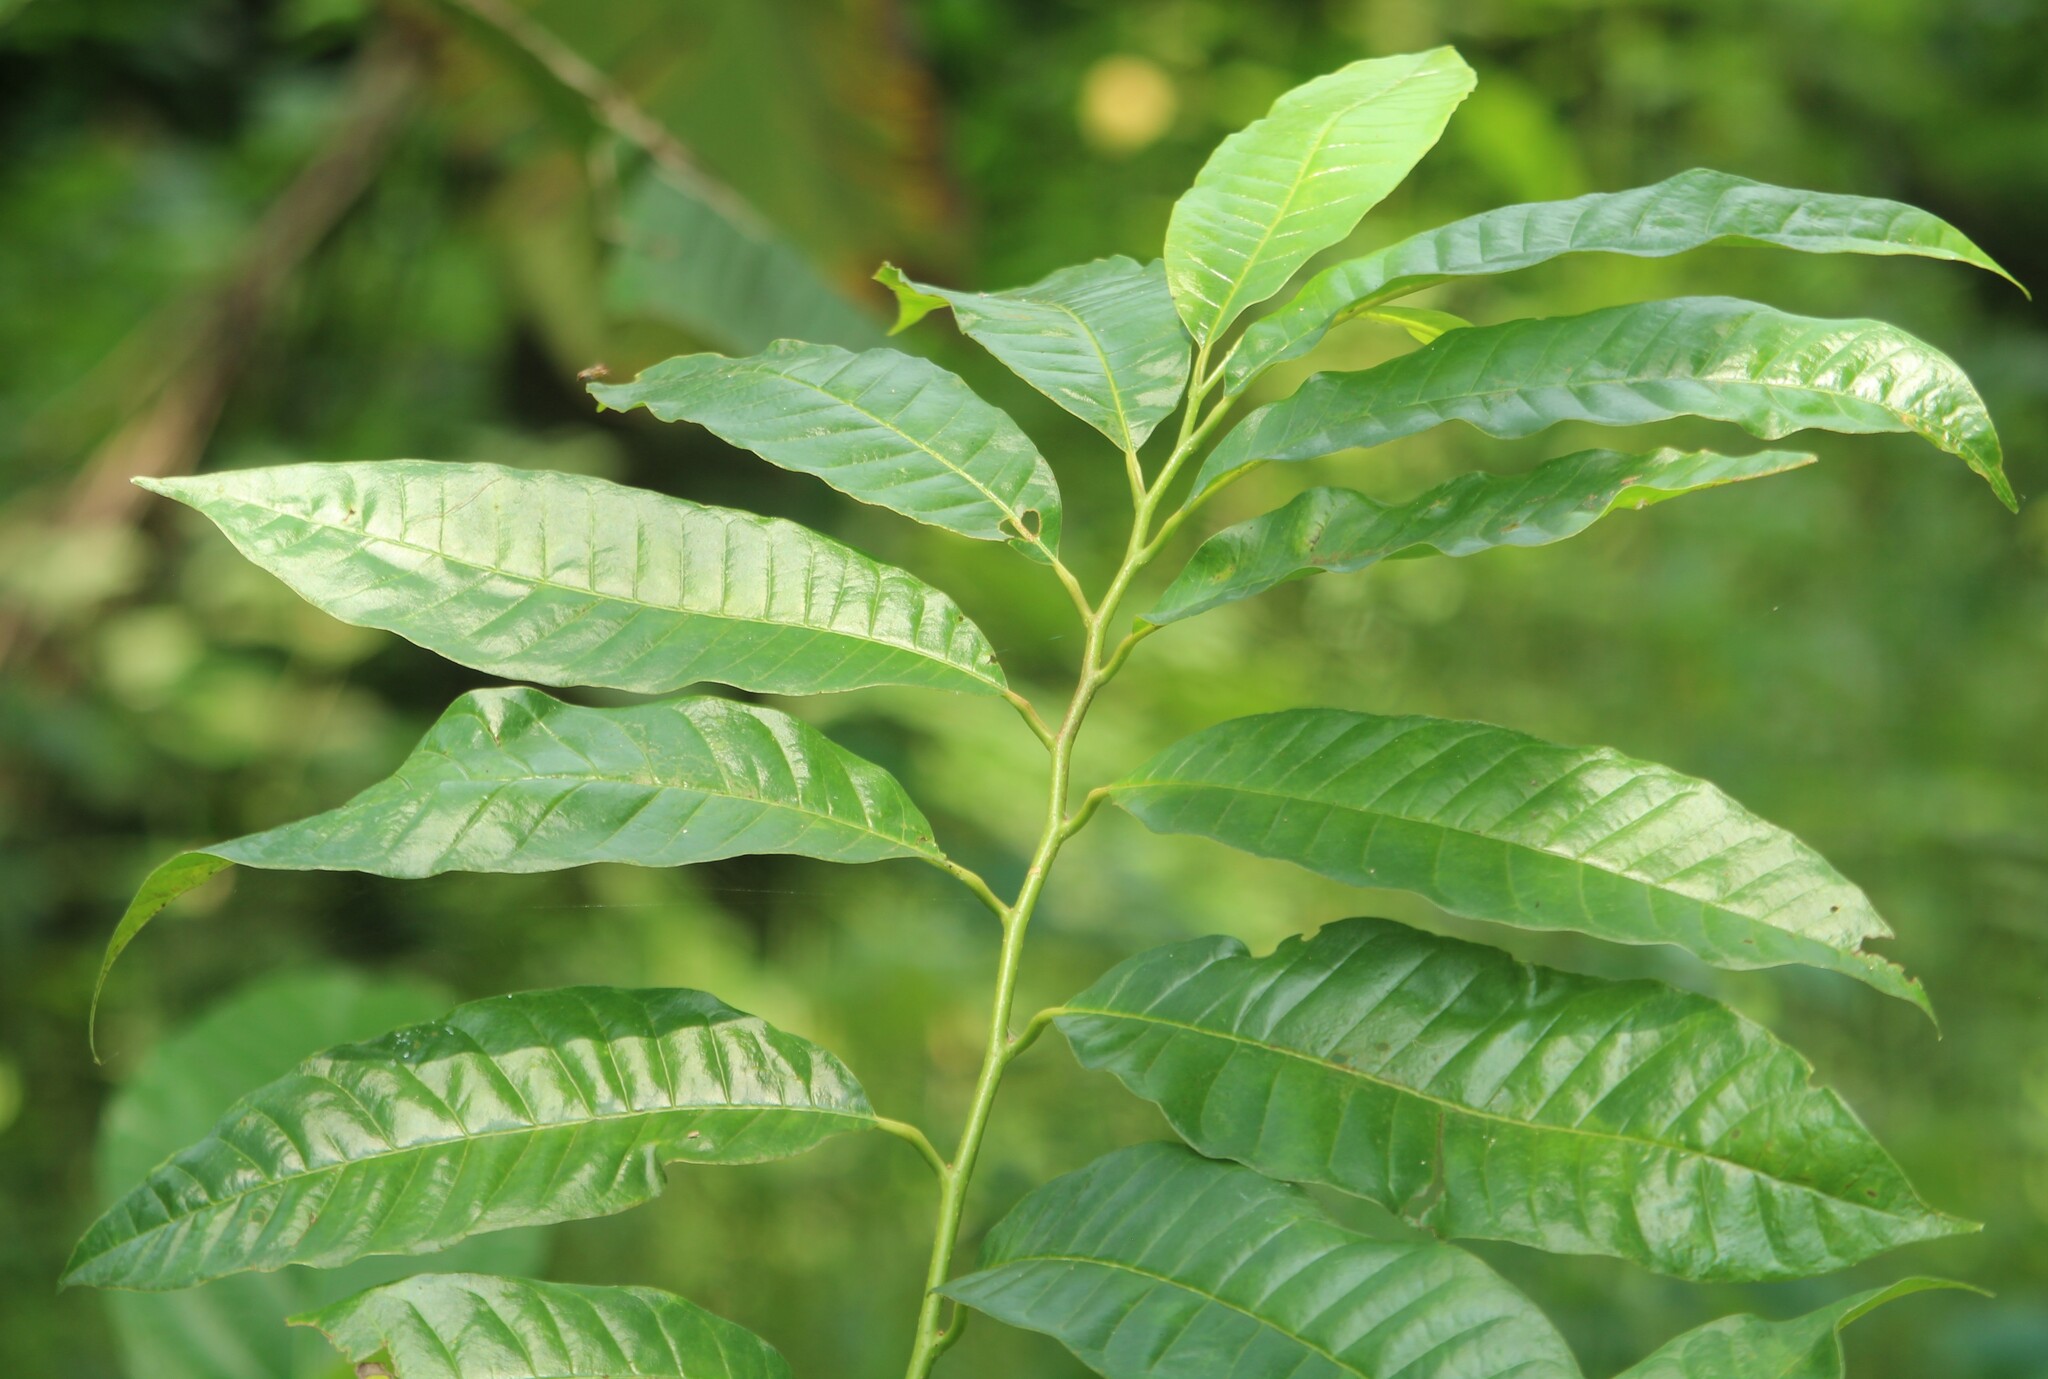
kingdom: Plantae
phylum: Tracheophyta
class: Magnoliopsida
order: Magnoliales
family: Annonaceae
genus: Annona
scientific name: Annona reticulata
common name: Custard apple
